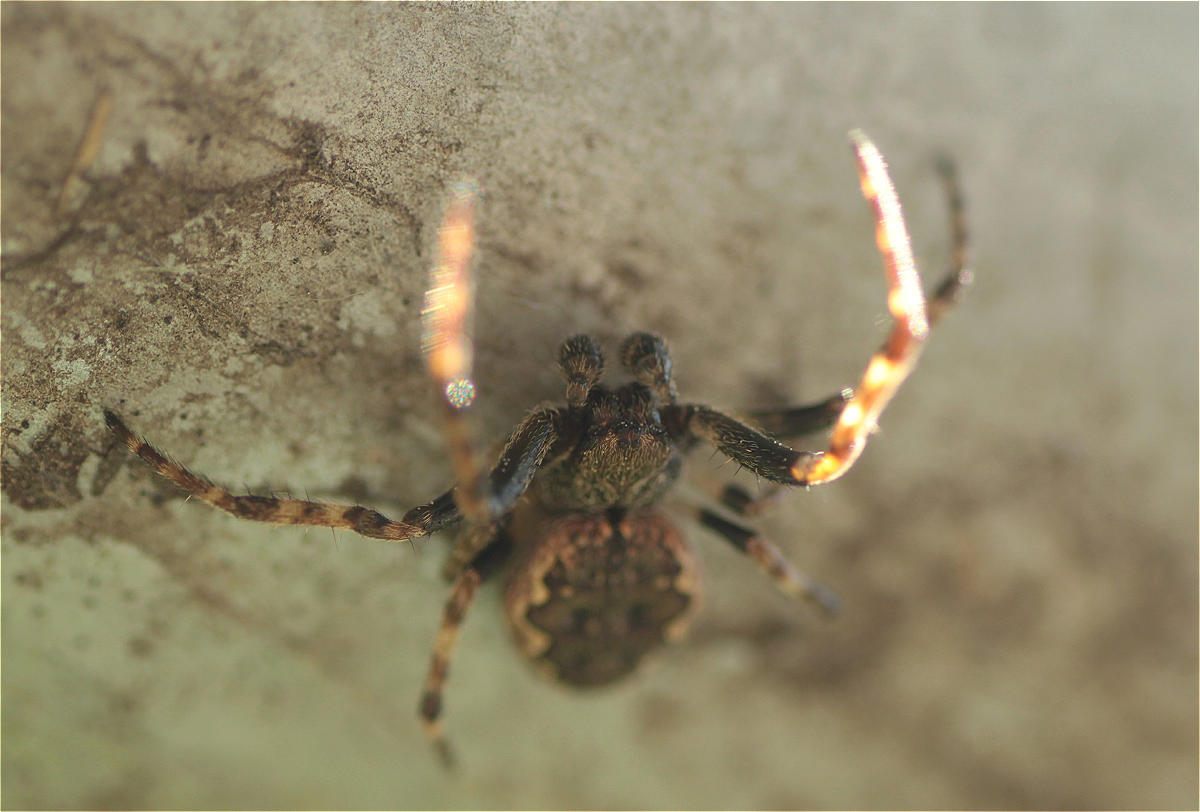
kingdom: Animalia
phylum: Arthropoda
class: Arachnida
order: Araneae
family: Araneidae
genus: Nuctenea
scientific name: Nuctenea umbratica
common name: Toad spider
